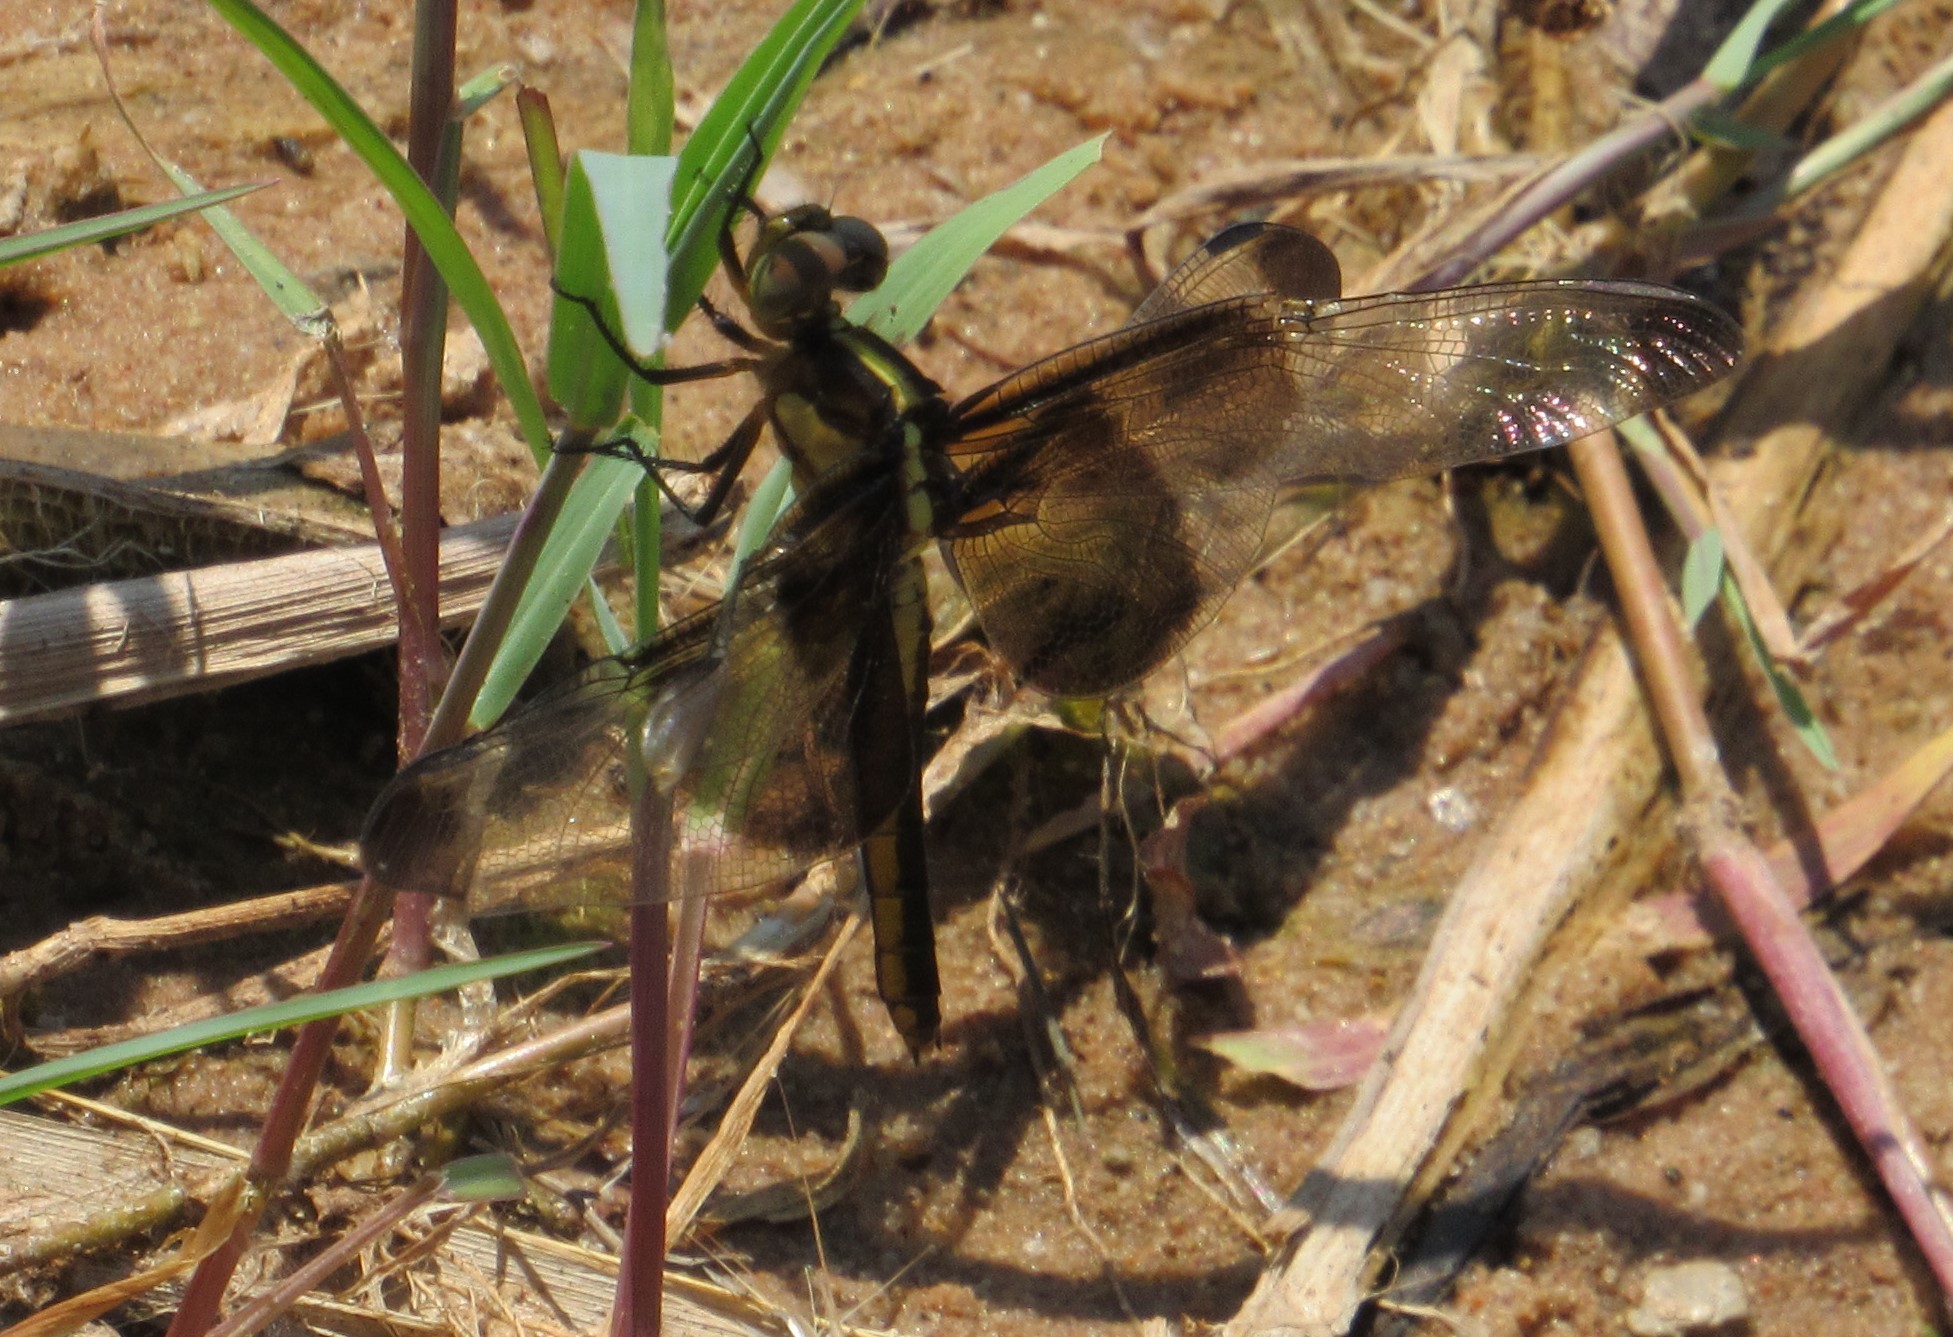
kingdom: Animalia
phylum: Arthropoda
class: Insecta
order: Odonata
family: Libellulidae
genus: Libellula
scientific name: Libellula luctuosa
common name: Widow skimmer
